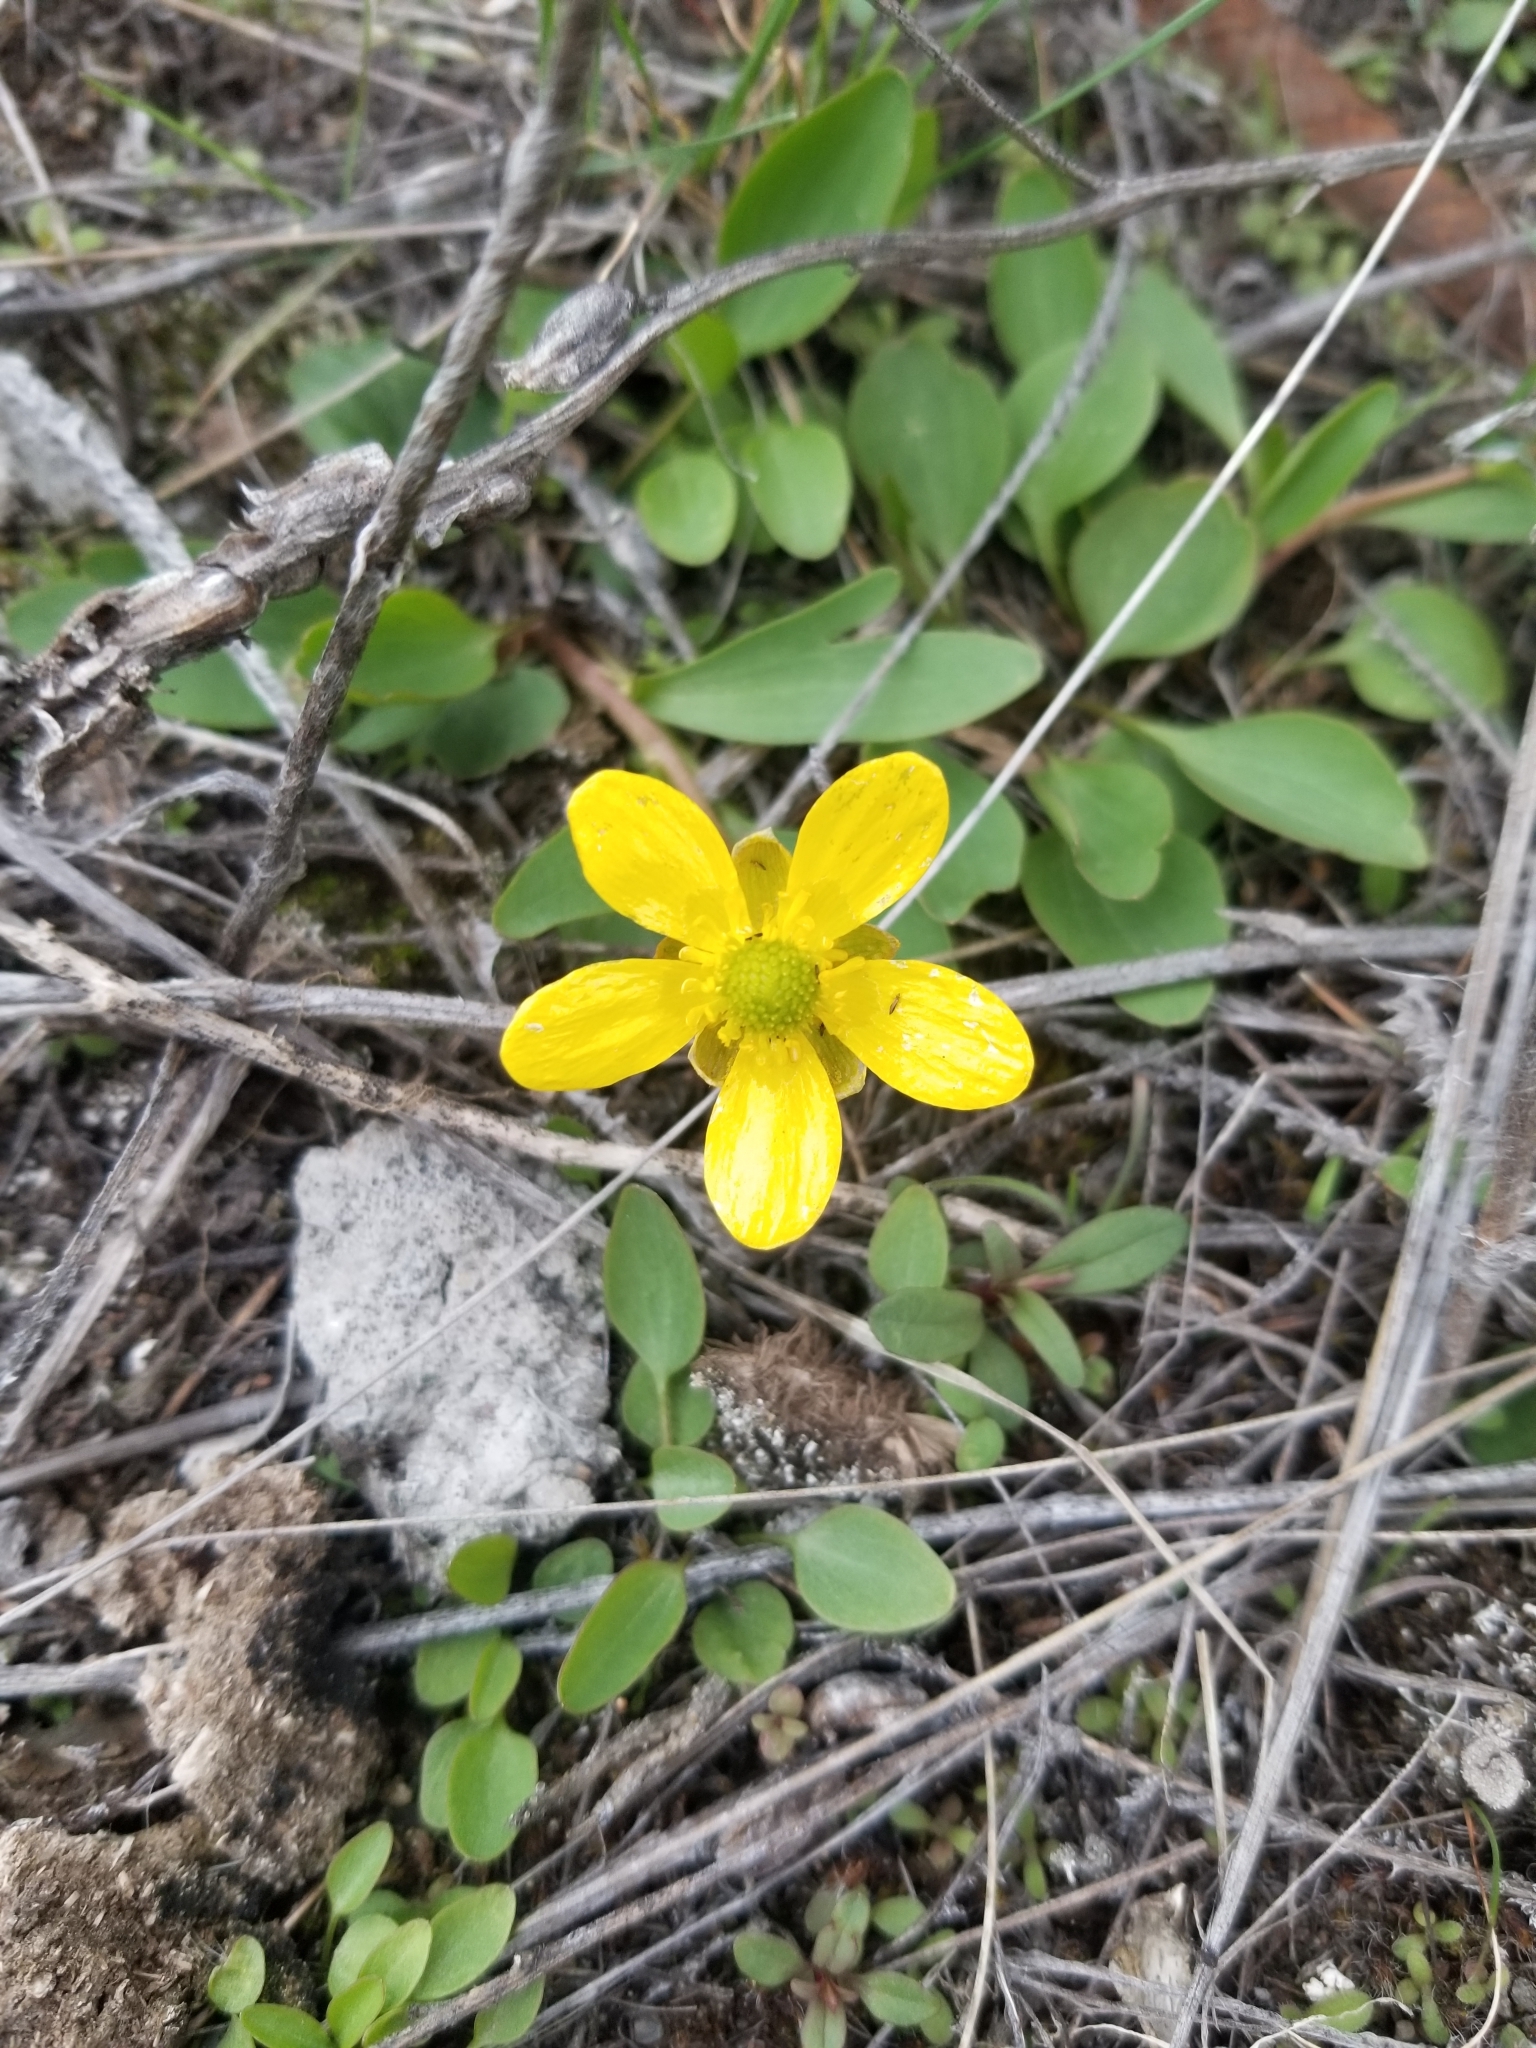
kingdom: Plantae
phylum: Tracheophyta
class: Magnoliopsida
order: Ranunculales
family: Ranunculaceae
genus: Ranunculus
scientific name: Ranunculus glaberrimus
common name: Sagebrush buttercup
